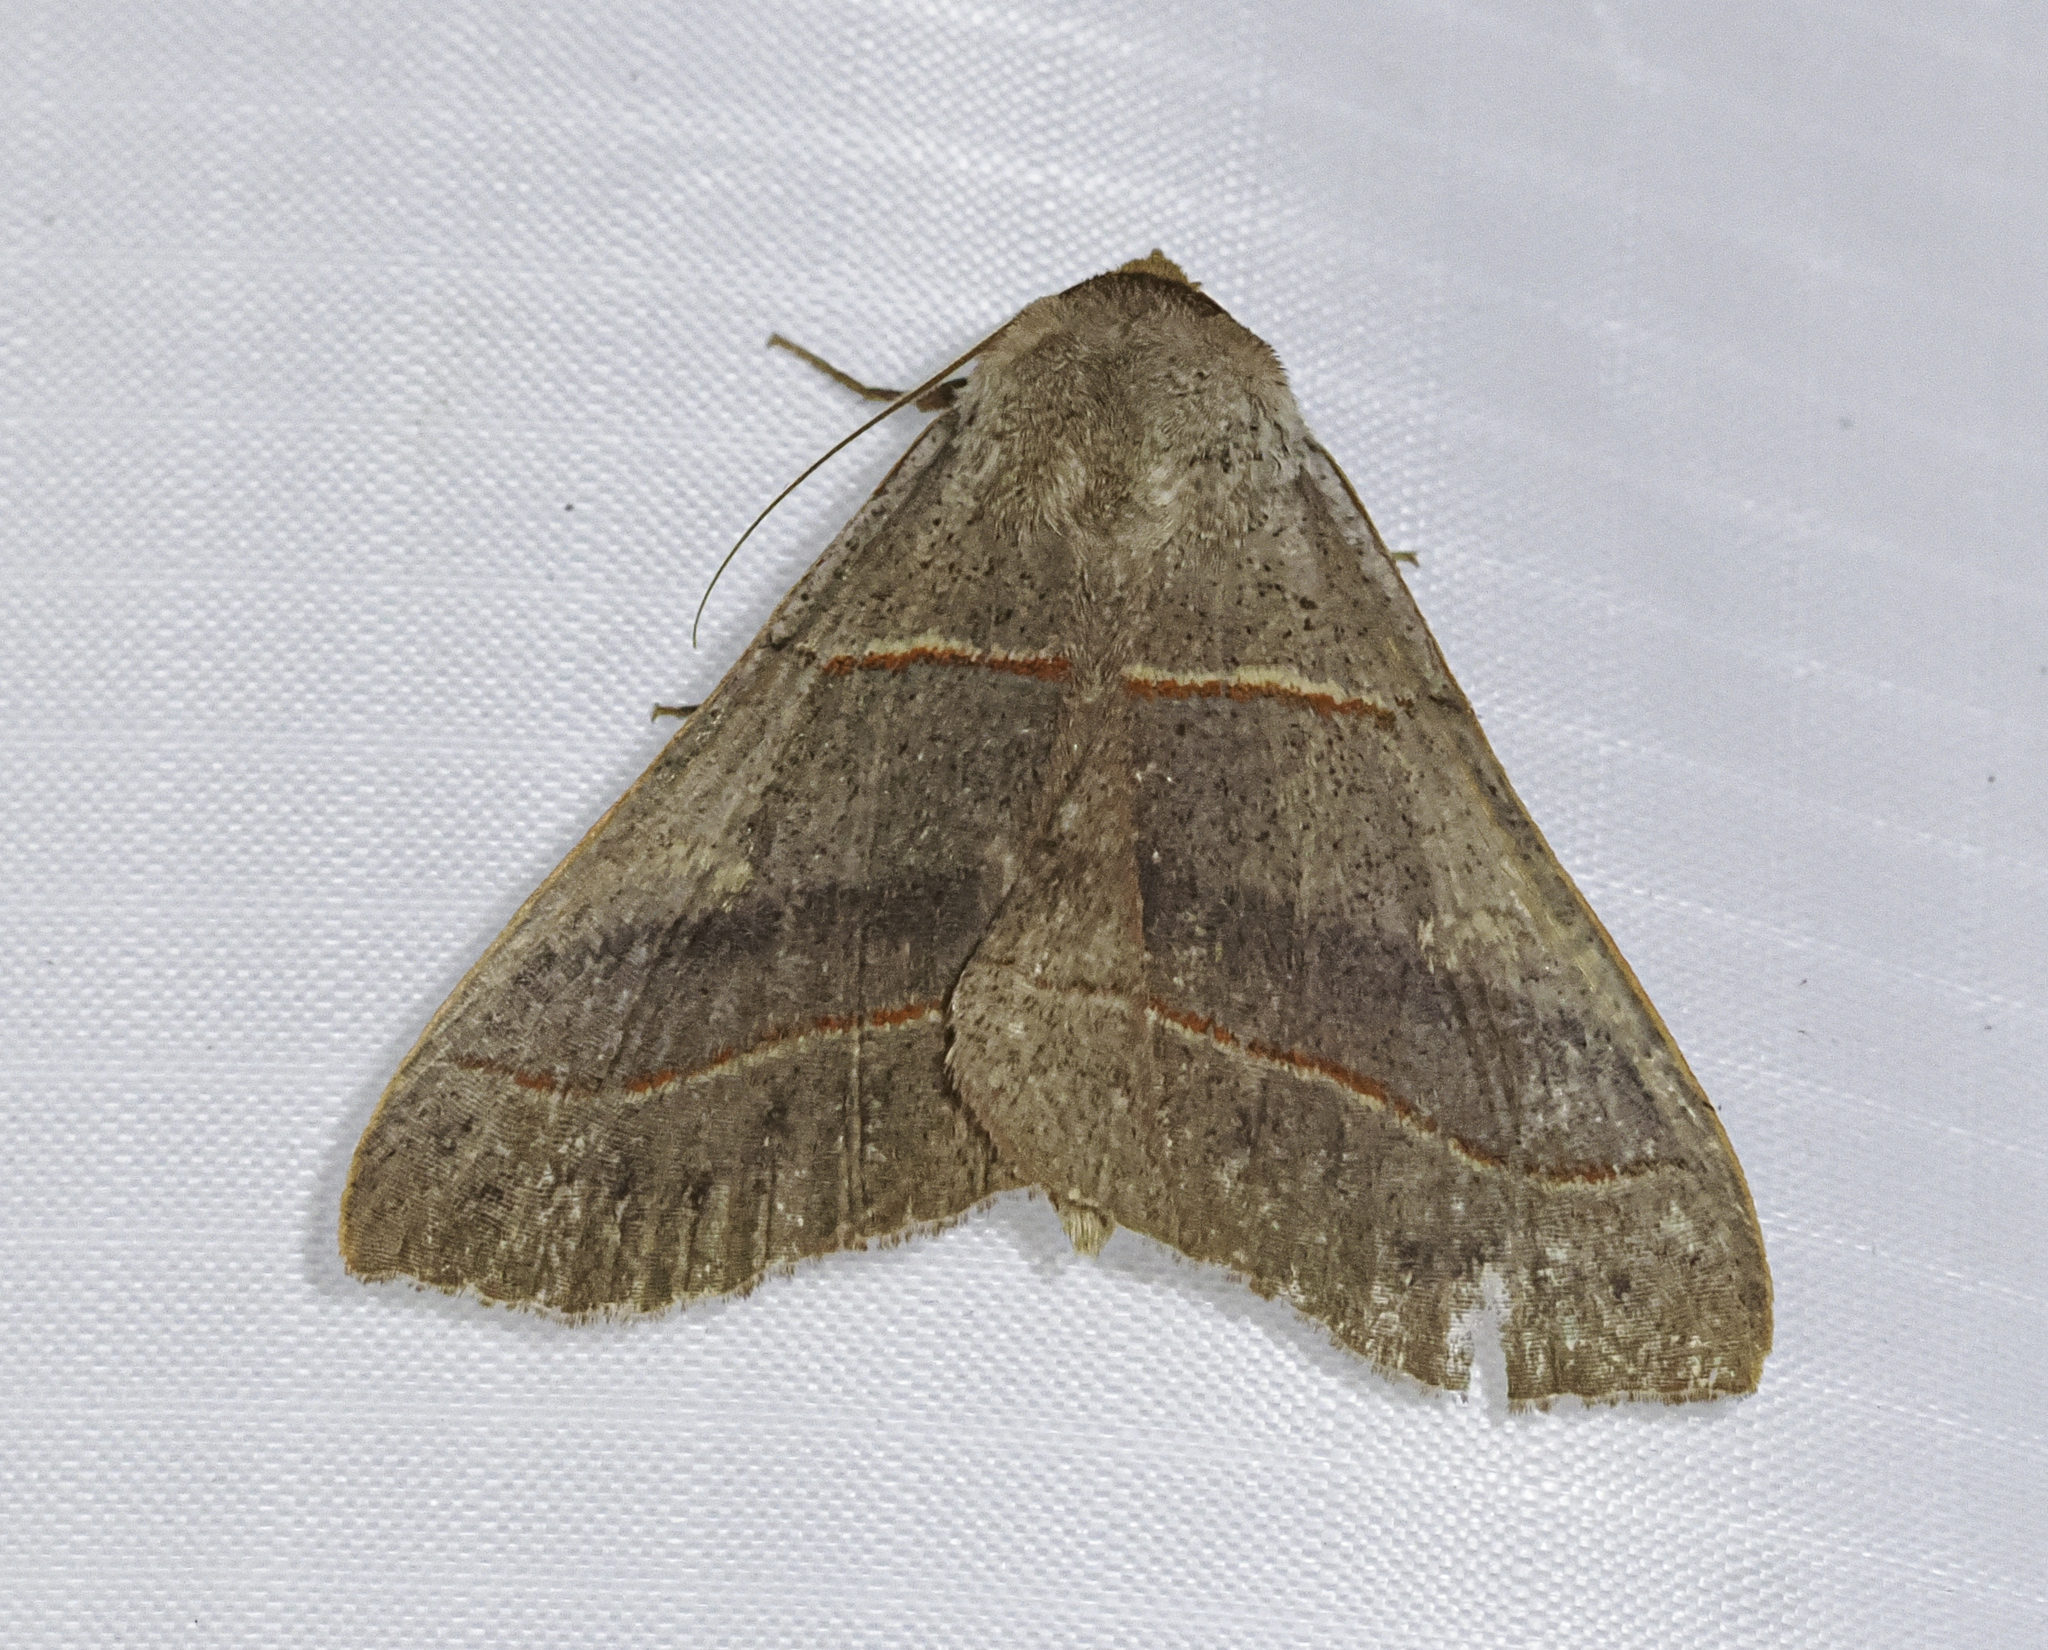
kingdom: Animalia
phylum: Arthropoda
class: Insecta
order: Lepidoptera
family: Erebidae
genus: Panopoda
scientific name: Panopoda rufimargo
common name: Red-lined panopoda moth
